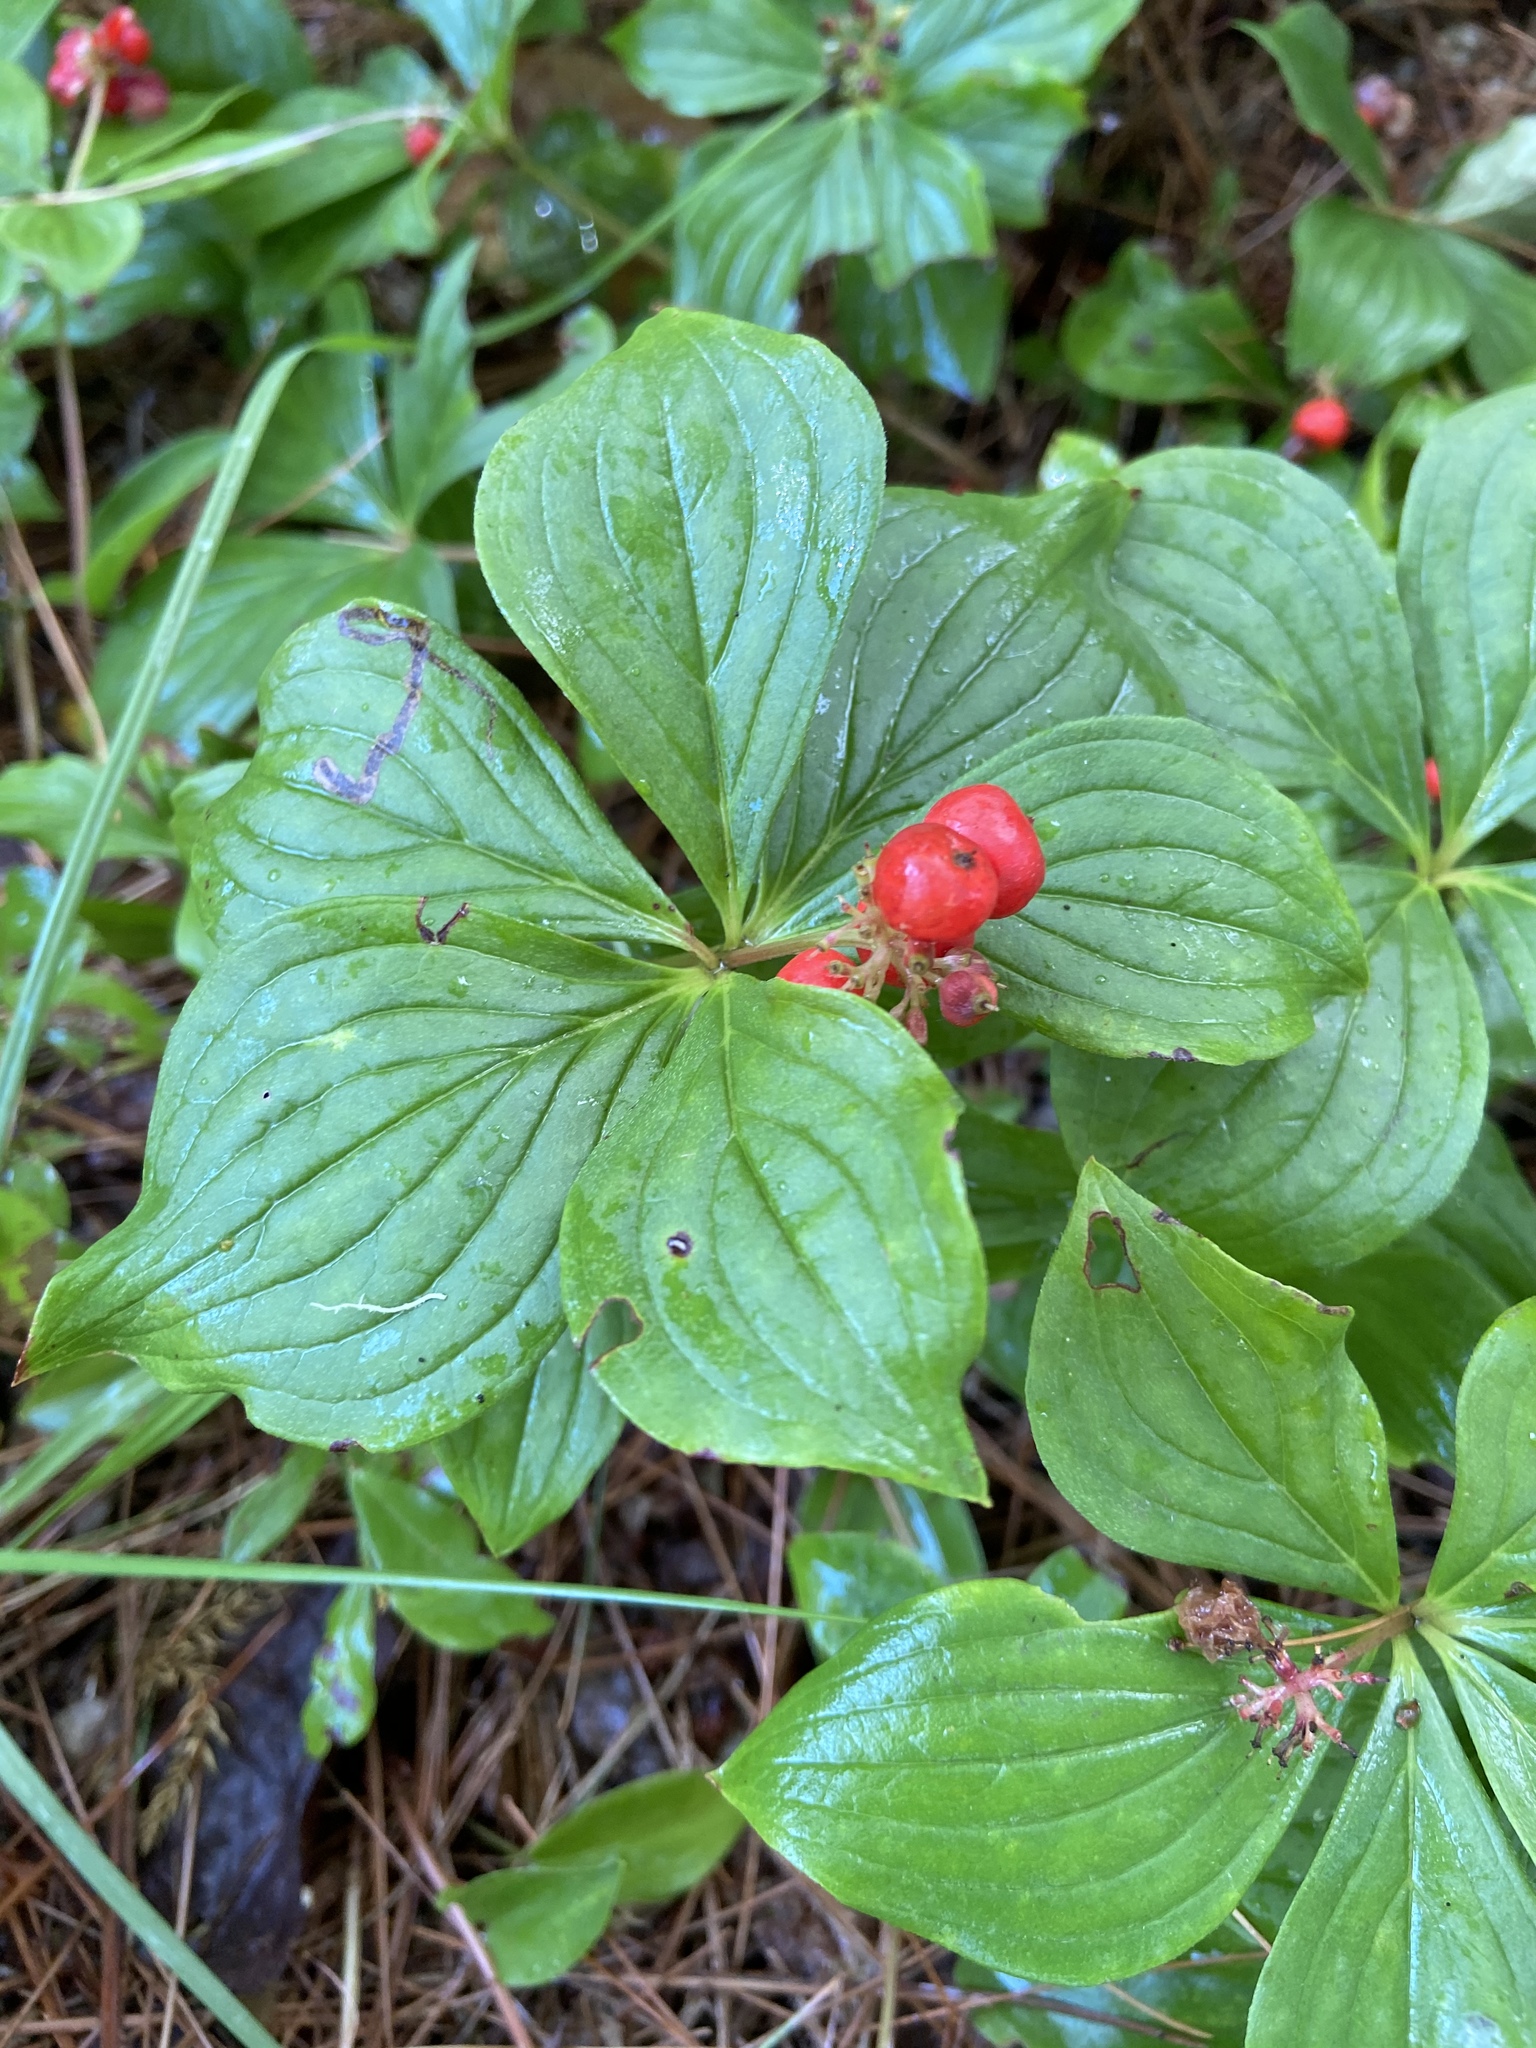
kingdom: Plantae
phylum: Tracheophyta
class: Magnoliopsida
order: Cornales
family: Cornaceae
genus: Cornus
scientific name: Cornus canadensis
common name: Creeping dogwood
